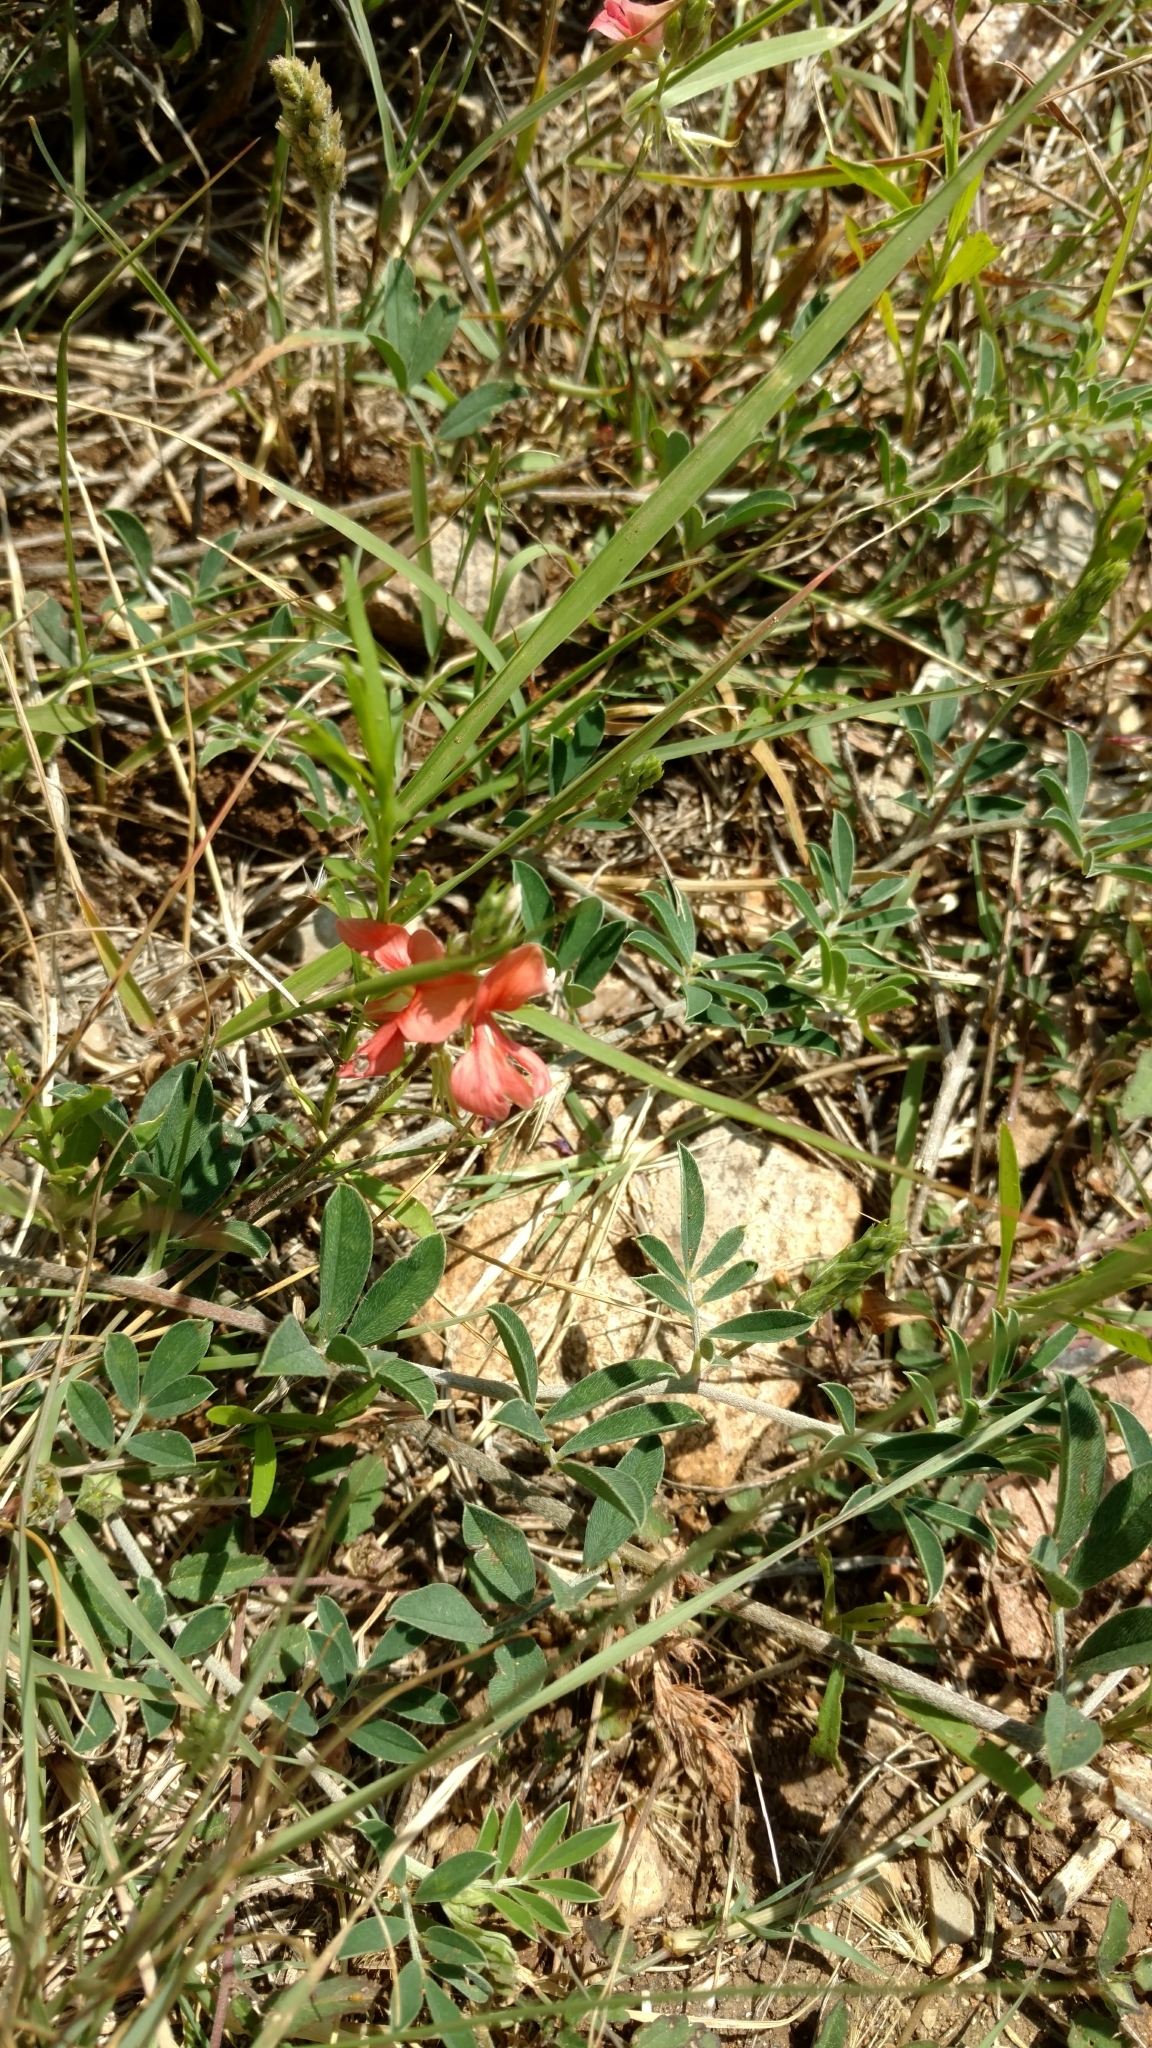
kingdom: Plantae
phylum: Tracheophyta
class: Magnoliopsida
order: Fabales
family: Fabaceae
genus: Indigofera
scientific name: Indigofera miniata
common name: Coast indigo
